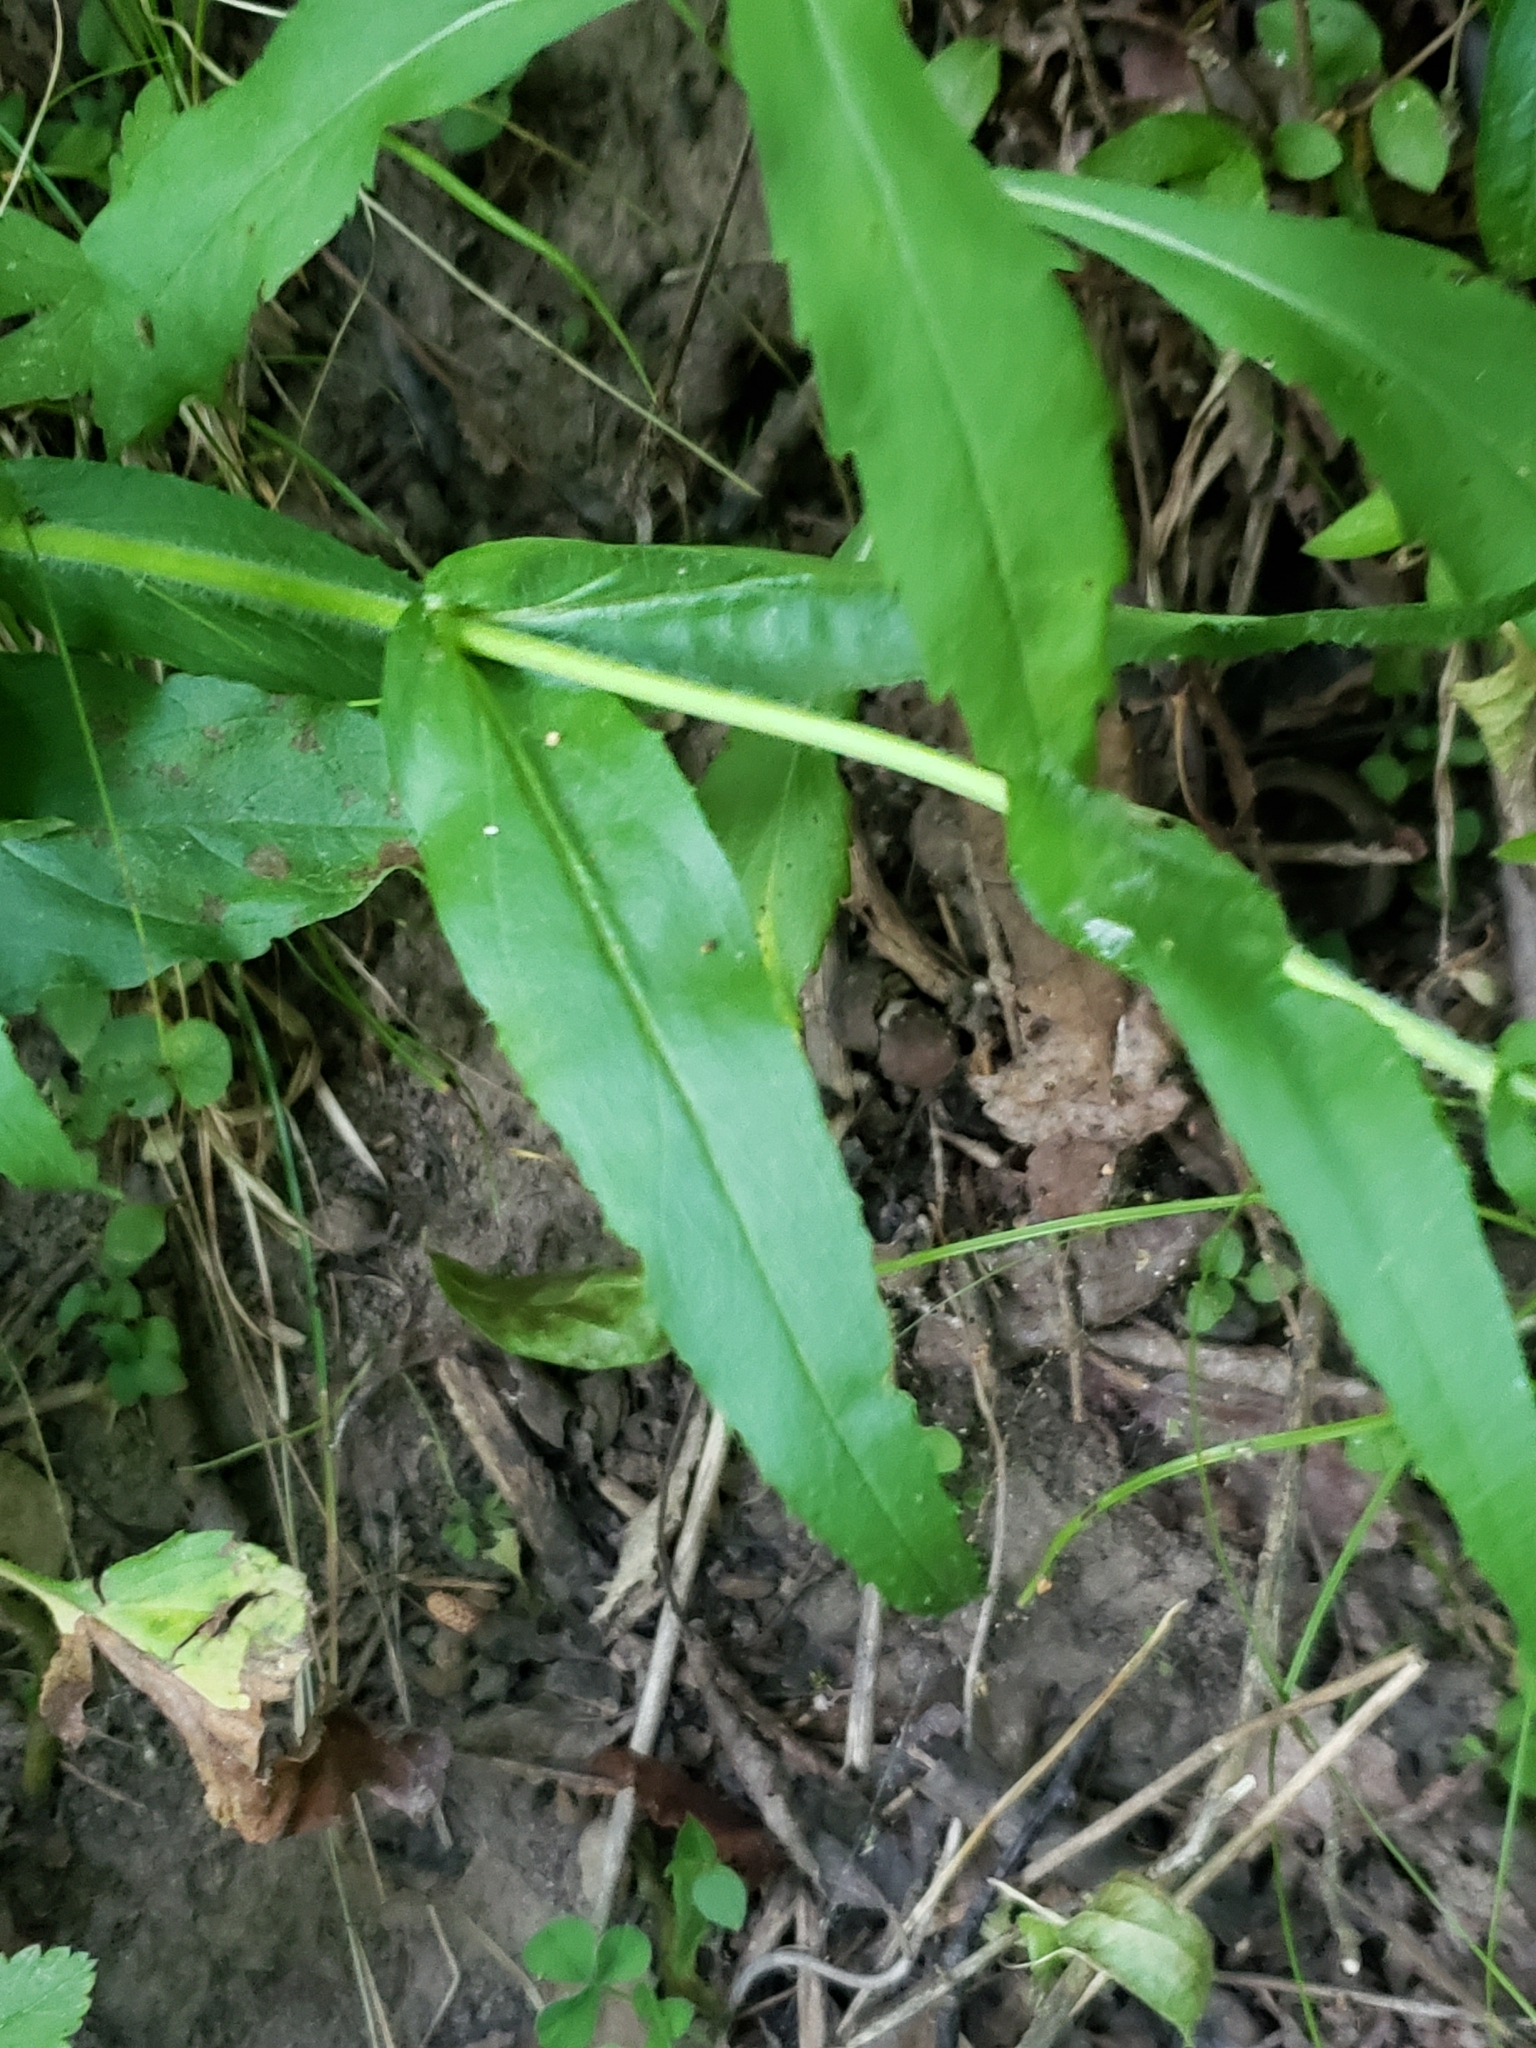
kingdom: Plantae
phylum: Tracheophyta
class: Magnoliopsida
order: Lamiales
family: Plantaginaceae
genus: Penstemon
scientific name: Penstemon hirsutus
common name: Hairy beardtongue
